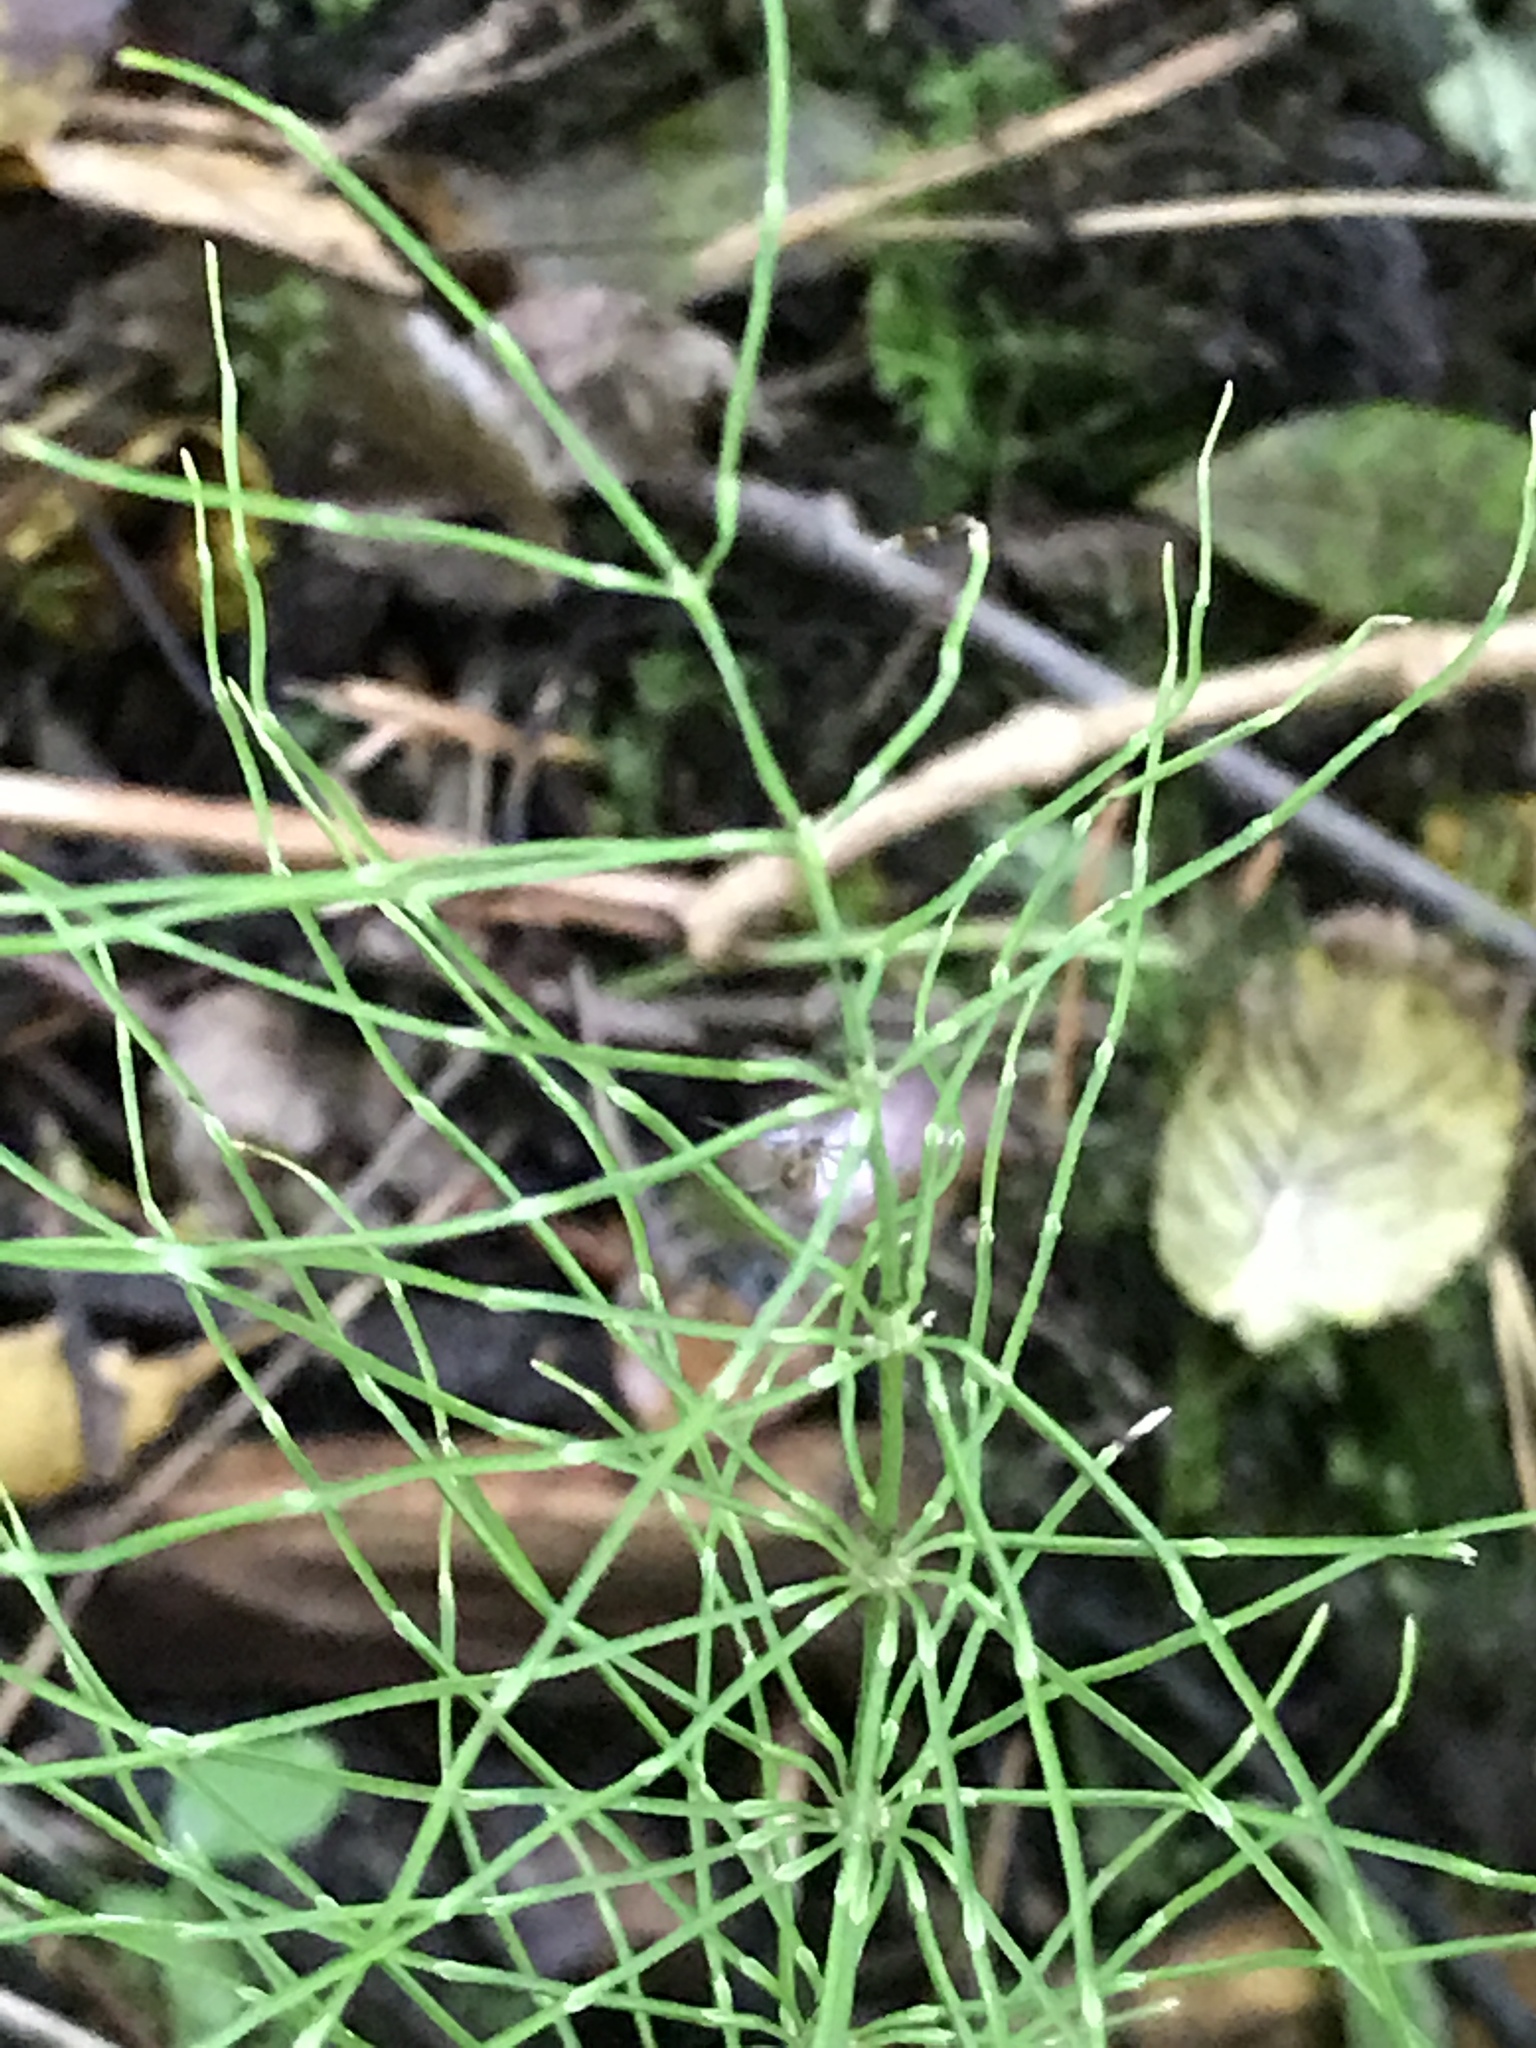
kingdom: Plantae
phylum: Tracheophyta
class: Polypodiopsida
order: Equisetales
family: Equisetaceae
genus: Equisetum
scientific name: Equisetum pratense
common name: Meadow horsetail
